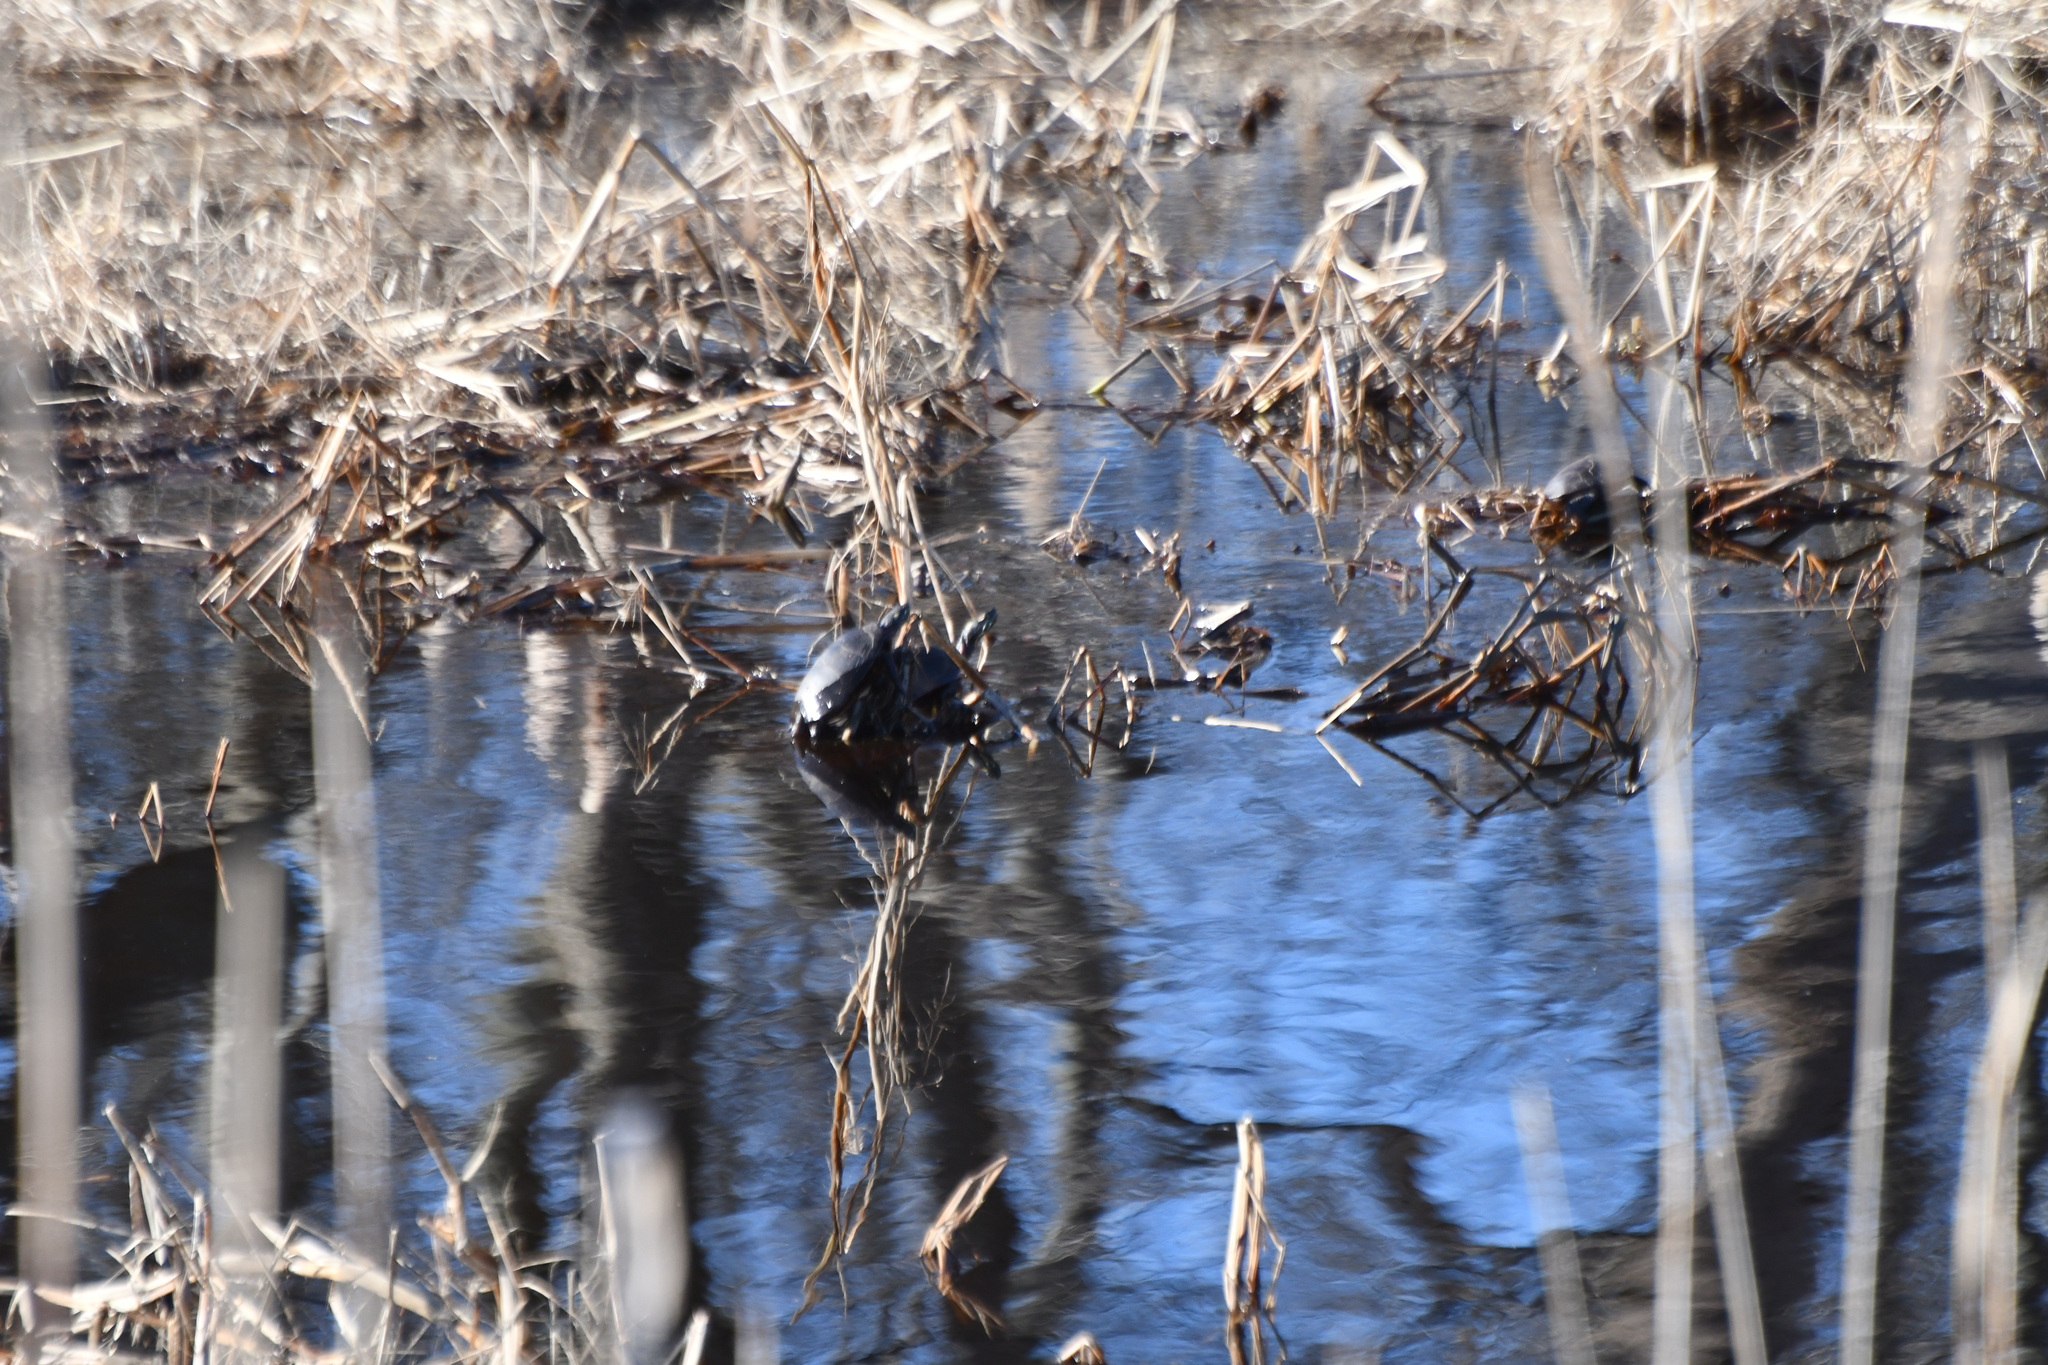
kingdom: Animalia
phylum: Chordata
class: Testudines
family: Emydidae
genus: Chrysemys
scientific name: Chrysemys picta
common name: Painted turtle
